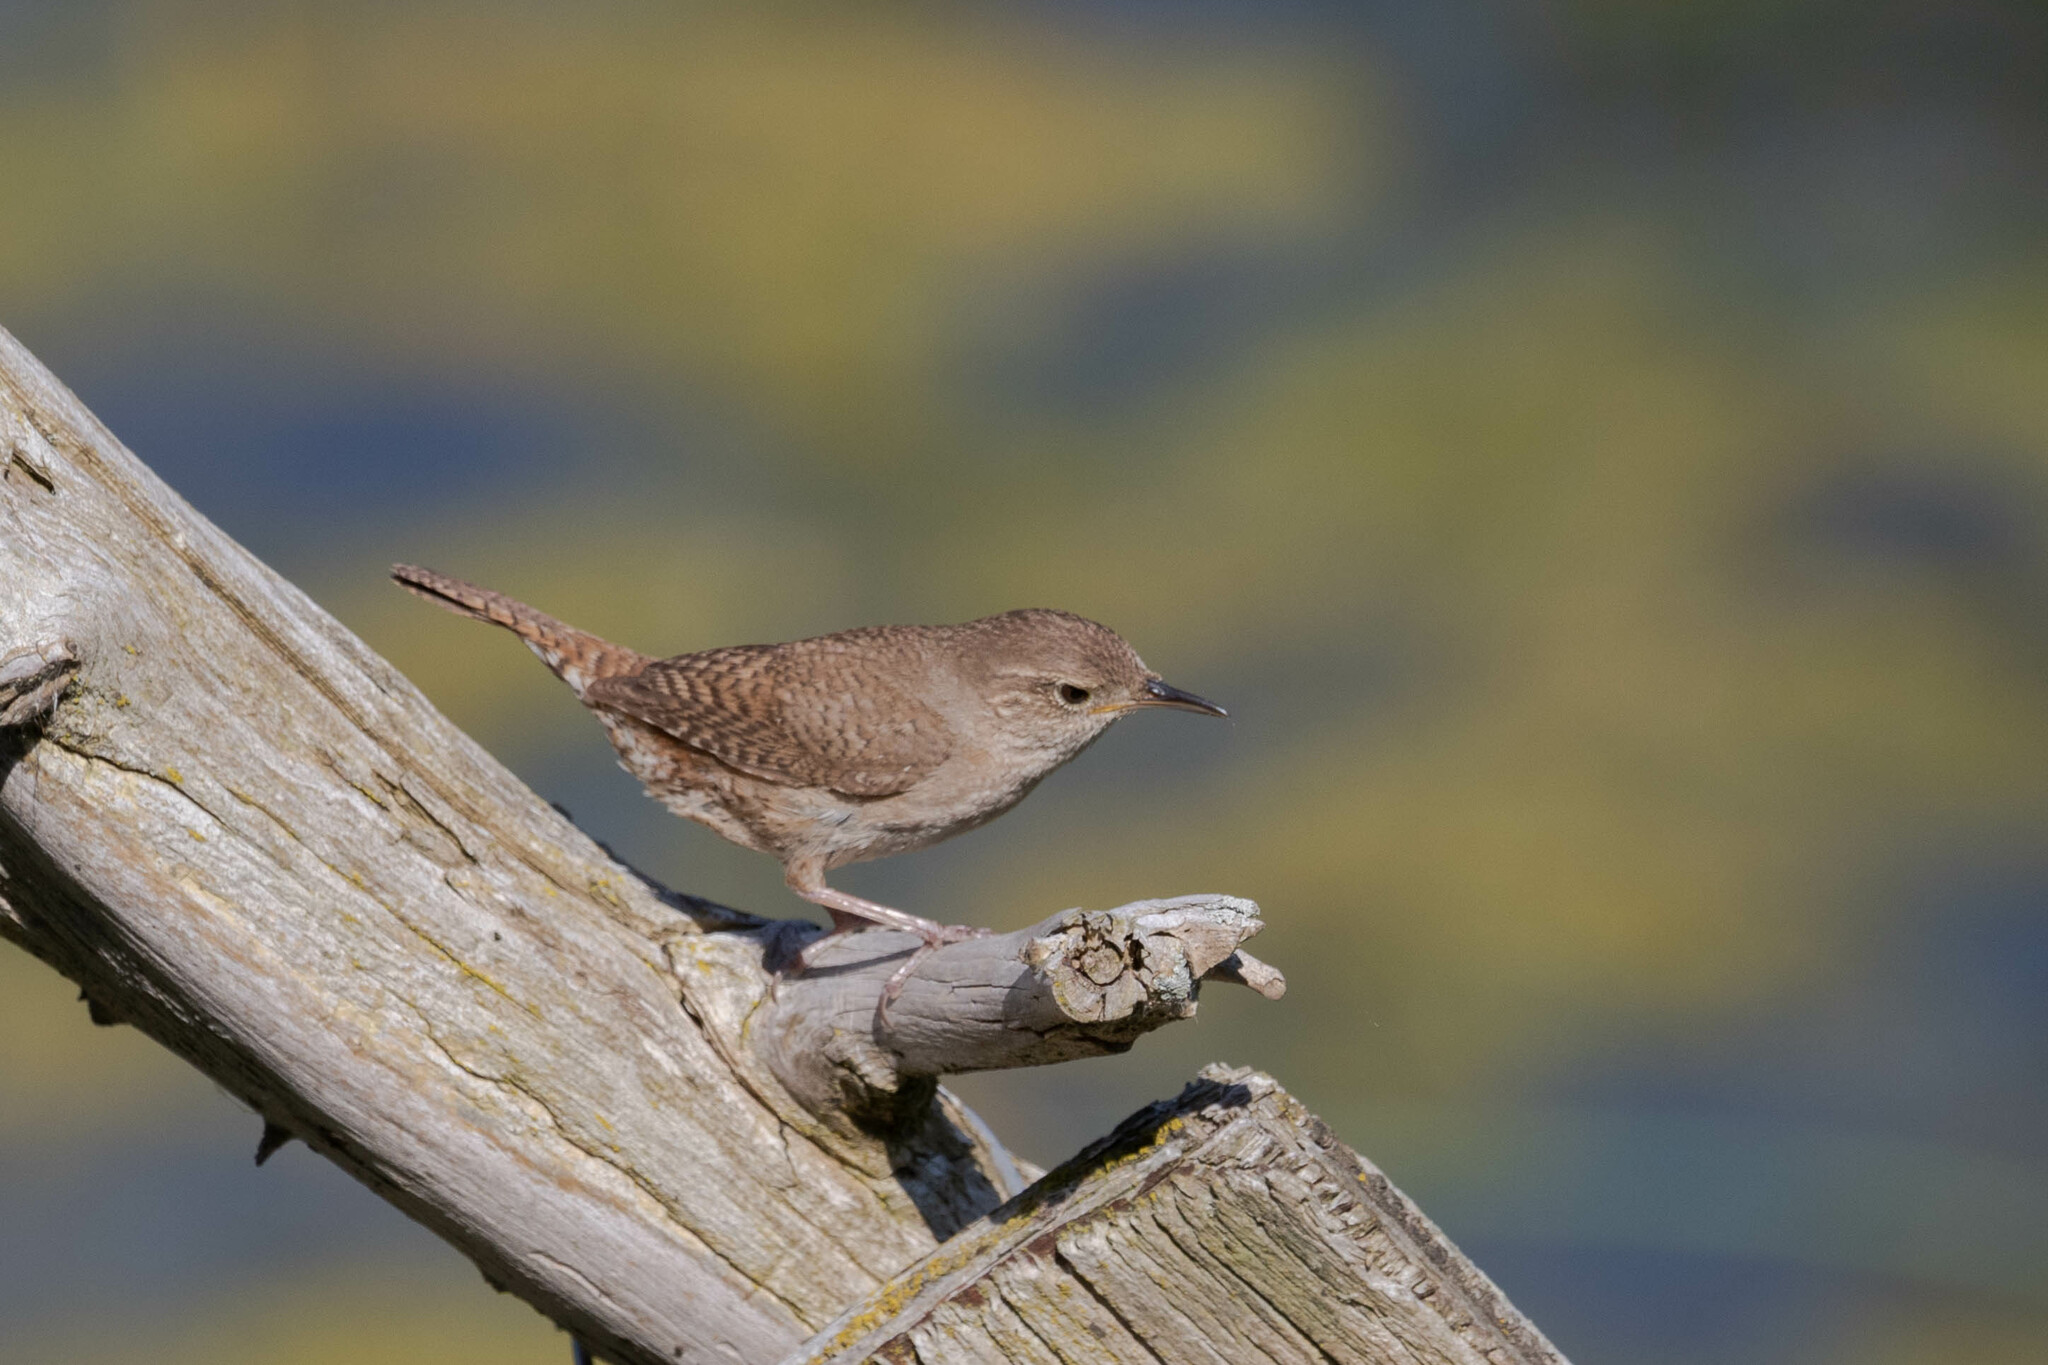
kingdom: Animalia
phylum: Chordata
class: Aves
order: Passeriformes
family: Troglodytidae
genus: Troglodytes
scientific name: Troglodytes aedon
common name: House wren
